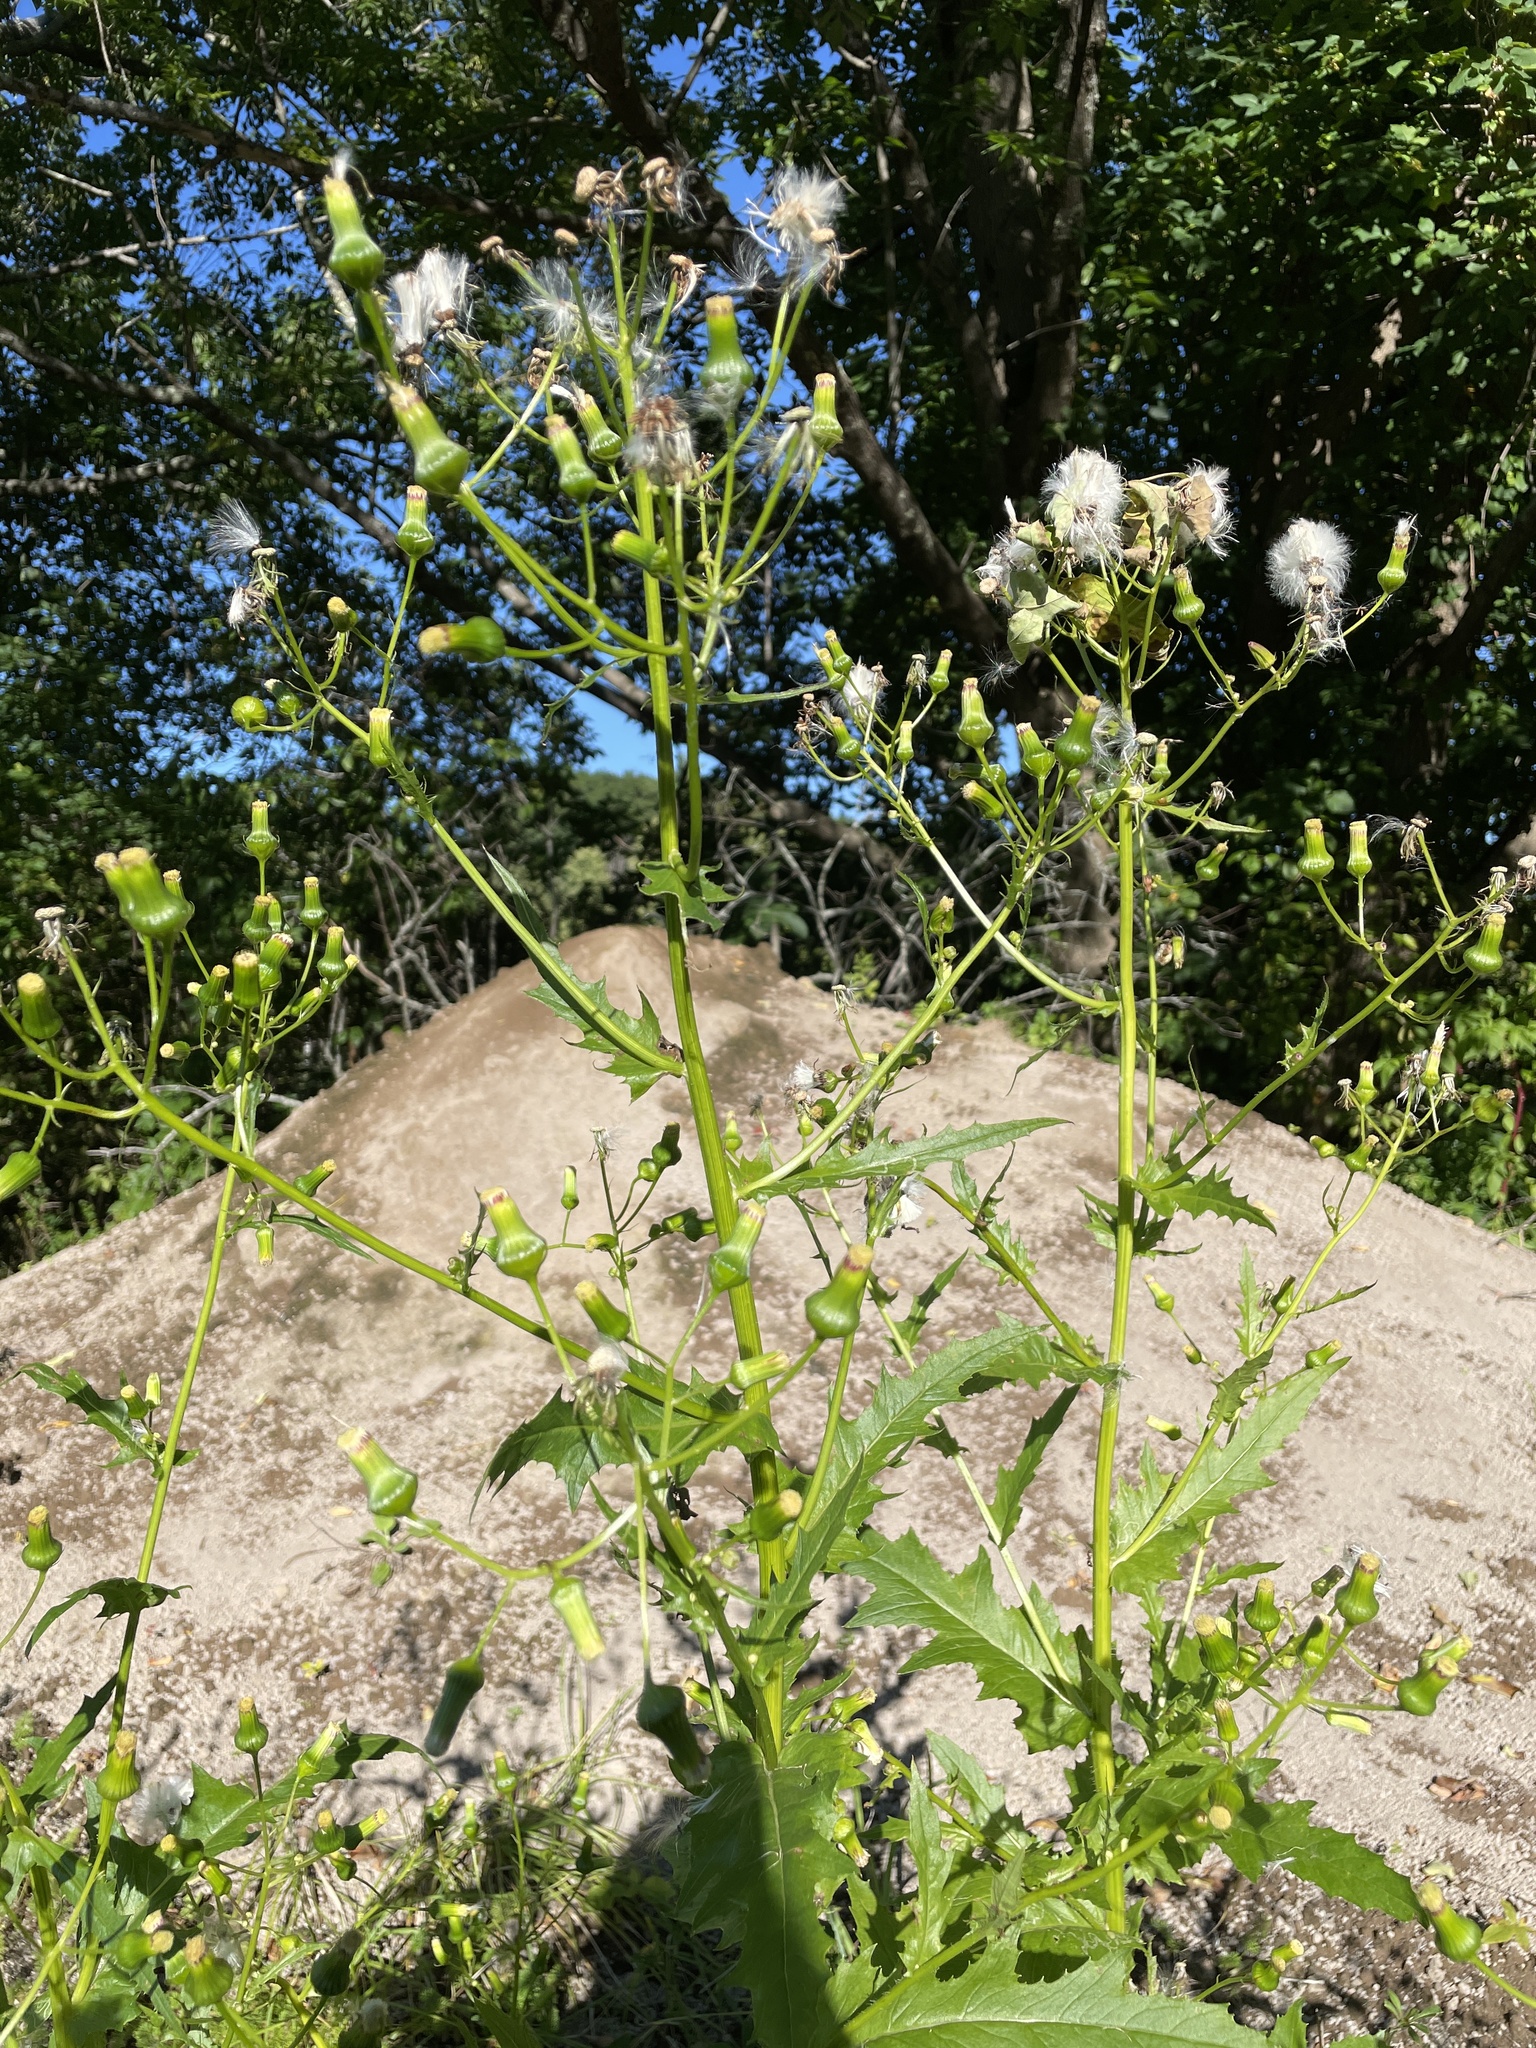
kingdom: Plantae
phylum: Tracheophyta
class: Magnoliopsida
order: Asterales
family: Asteraceae
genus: Erechtites
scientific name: Erechtites hieraciifolius
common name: American burnweed
